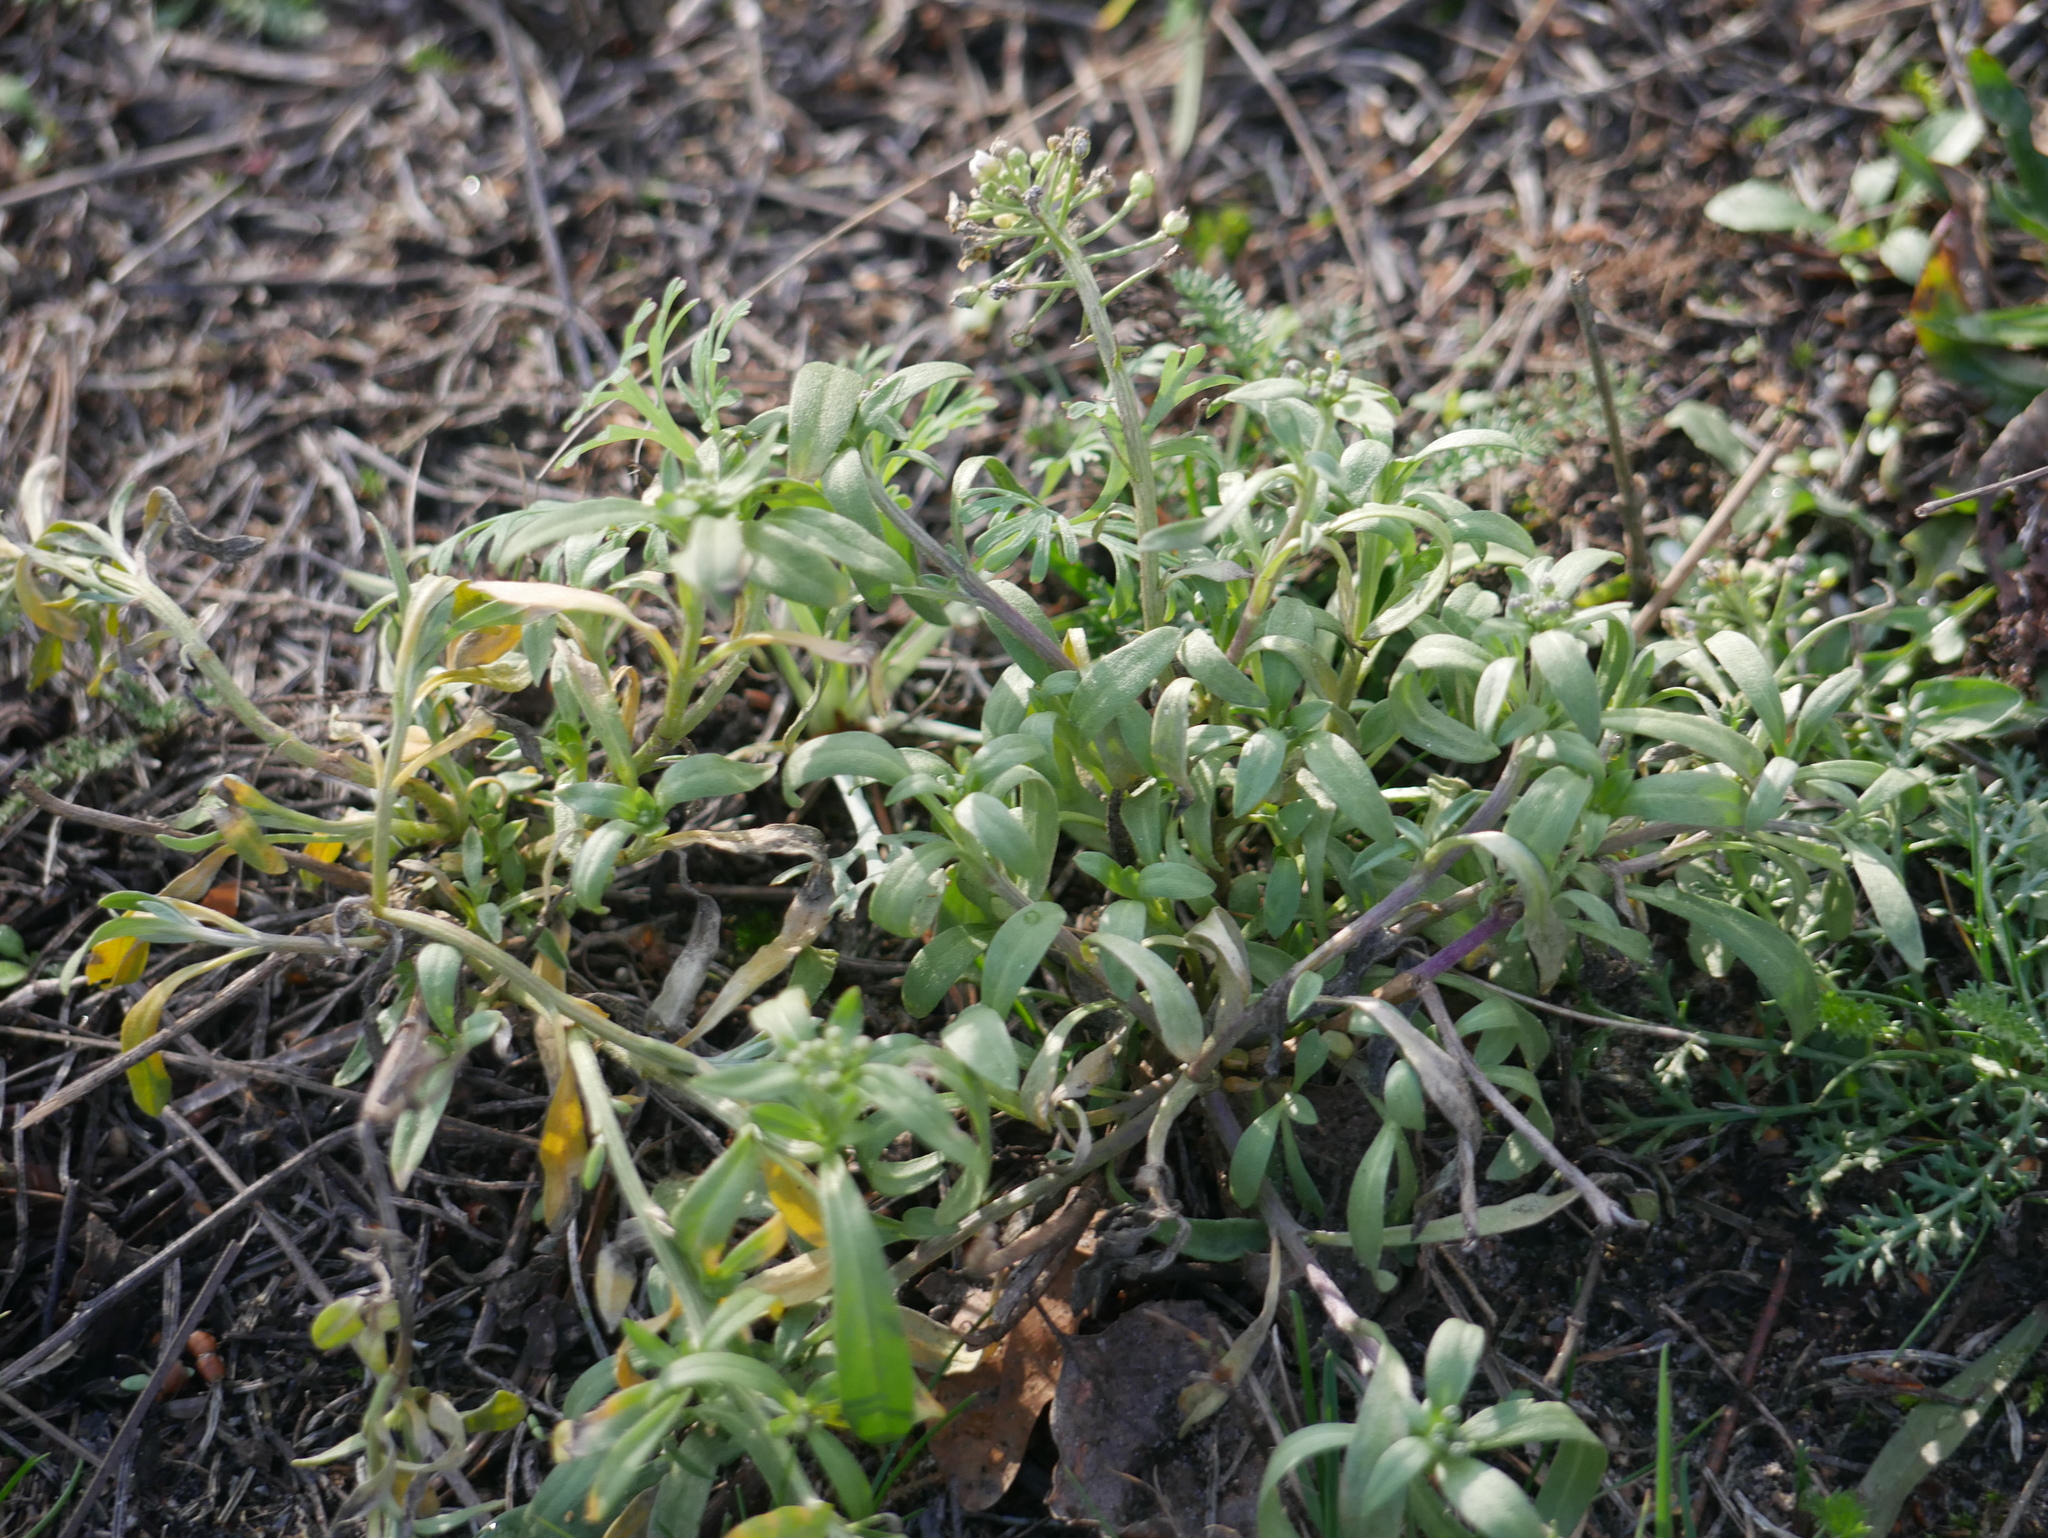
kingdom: Plantae
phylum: Tracheophyta
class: Magnoliopsida
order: Brassicales
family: Brassicaceae
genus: Lobularia
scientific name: Lobularia maritima
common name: Sweet alison
